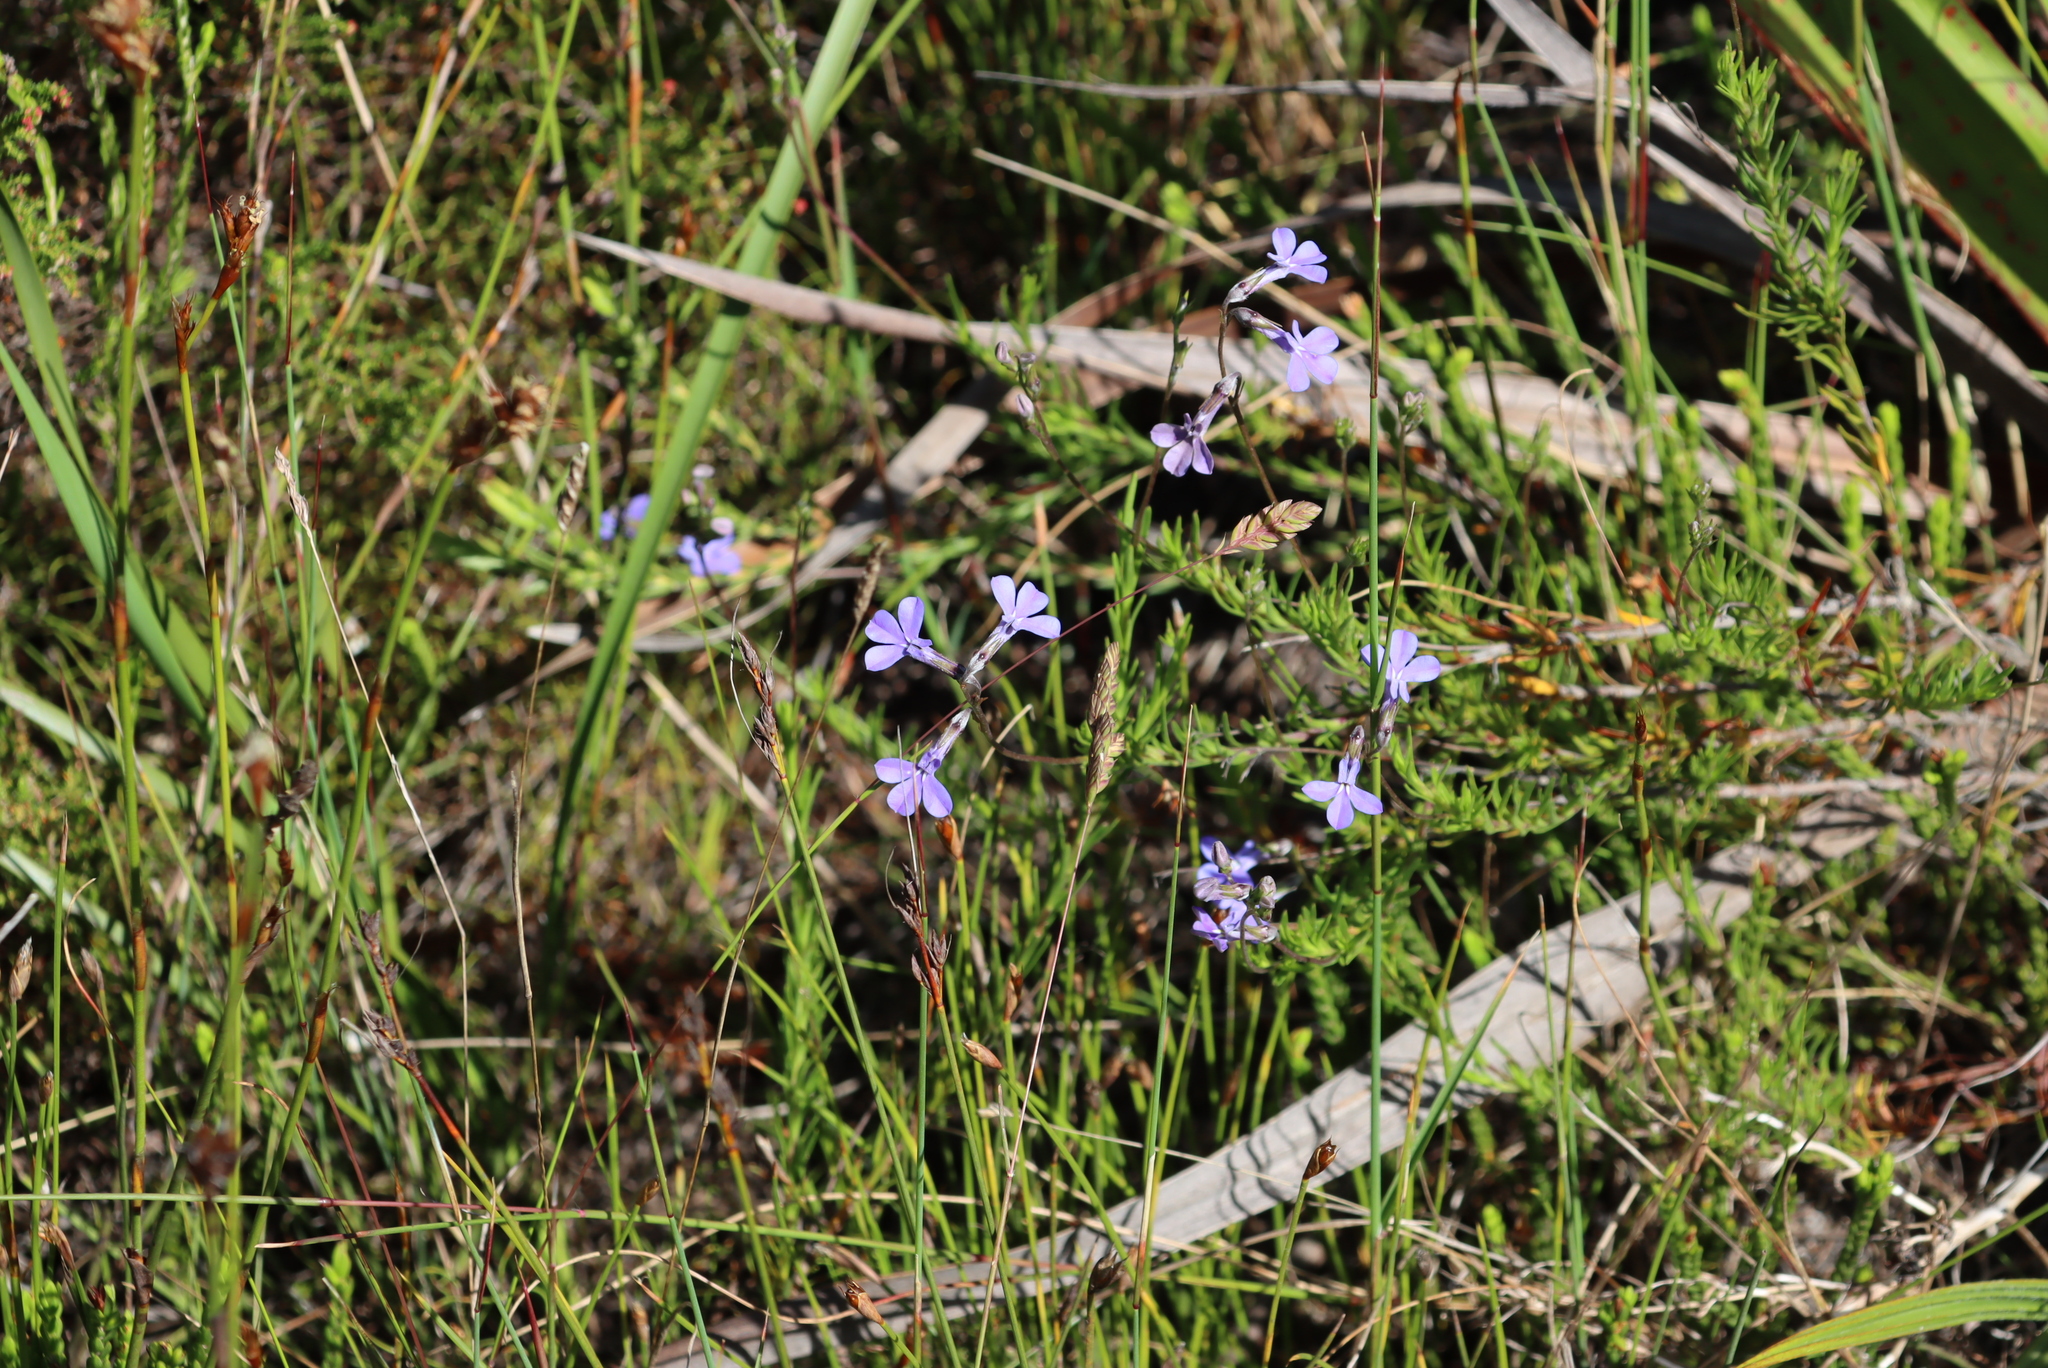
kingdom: Plantae
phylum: Tracheophyta
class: Magnoliopsida
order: Asterales
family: Campanulaceae
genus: Lobelia
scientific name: Lobelia pinifolia
